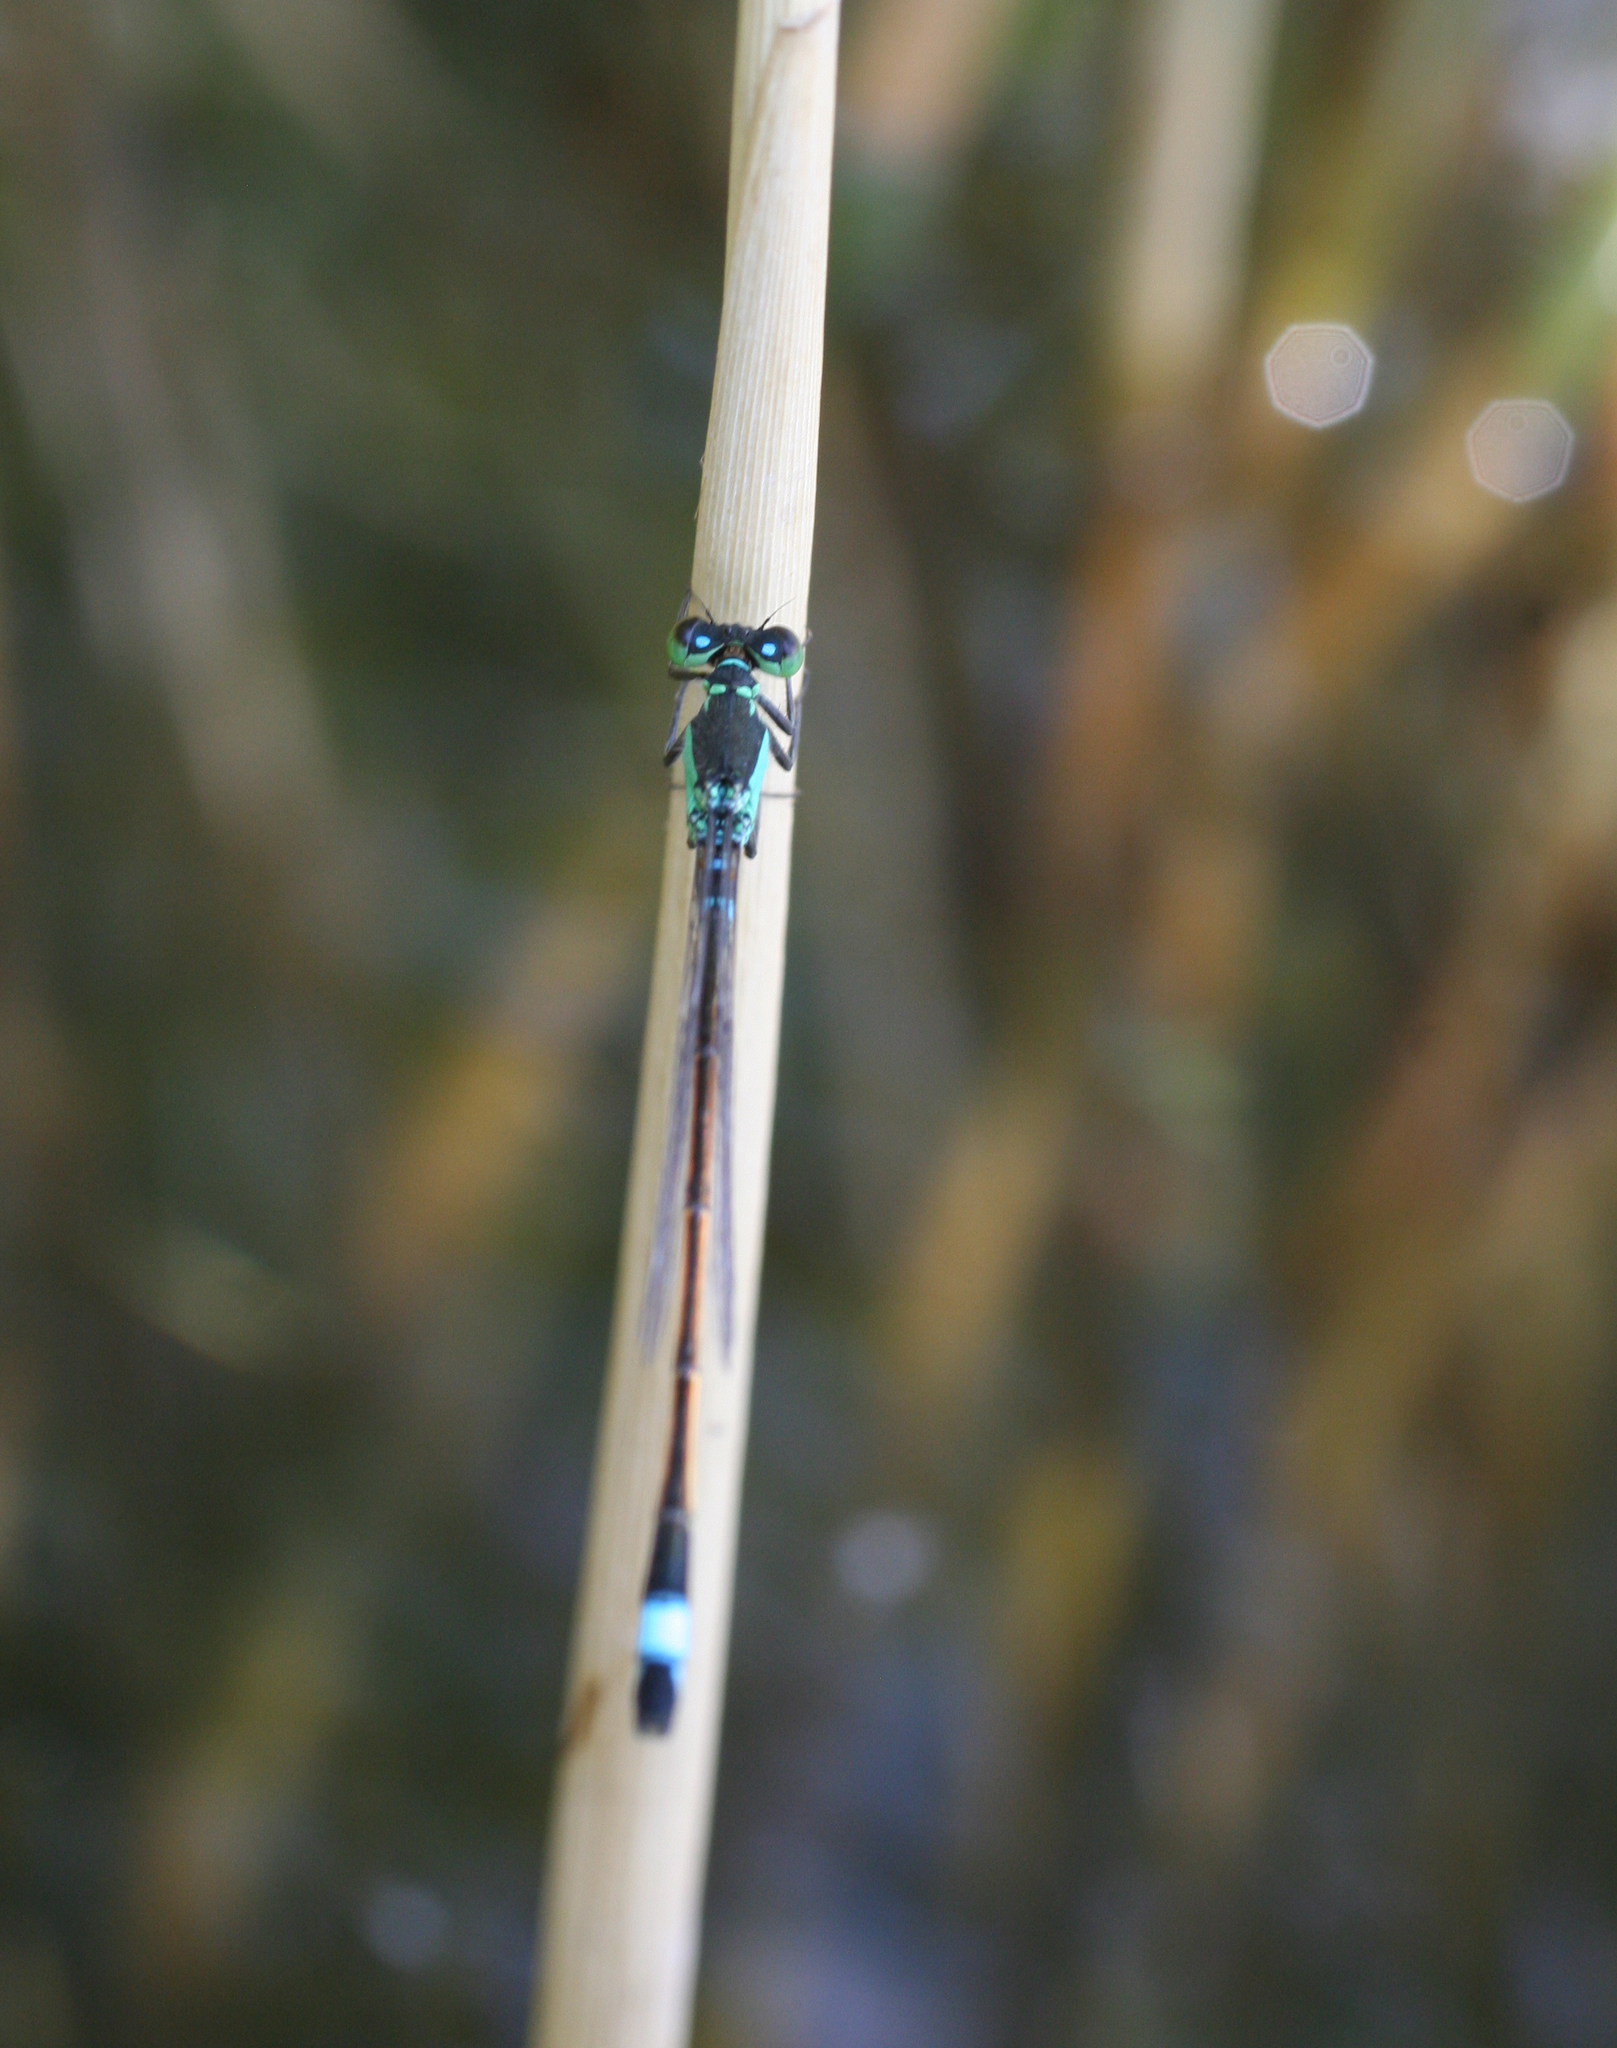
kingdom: Animalia
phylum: Arthropoda
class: Insecta
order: Odonata
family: Coenagrionidae
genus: Ischnura
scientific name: Ischnura aralensis
